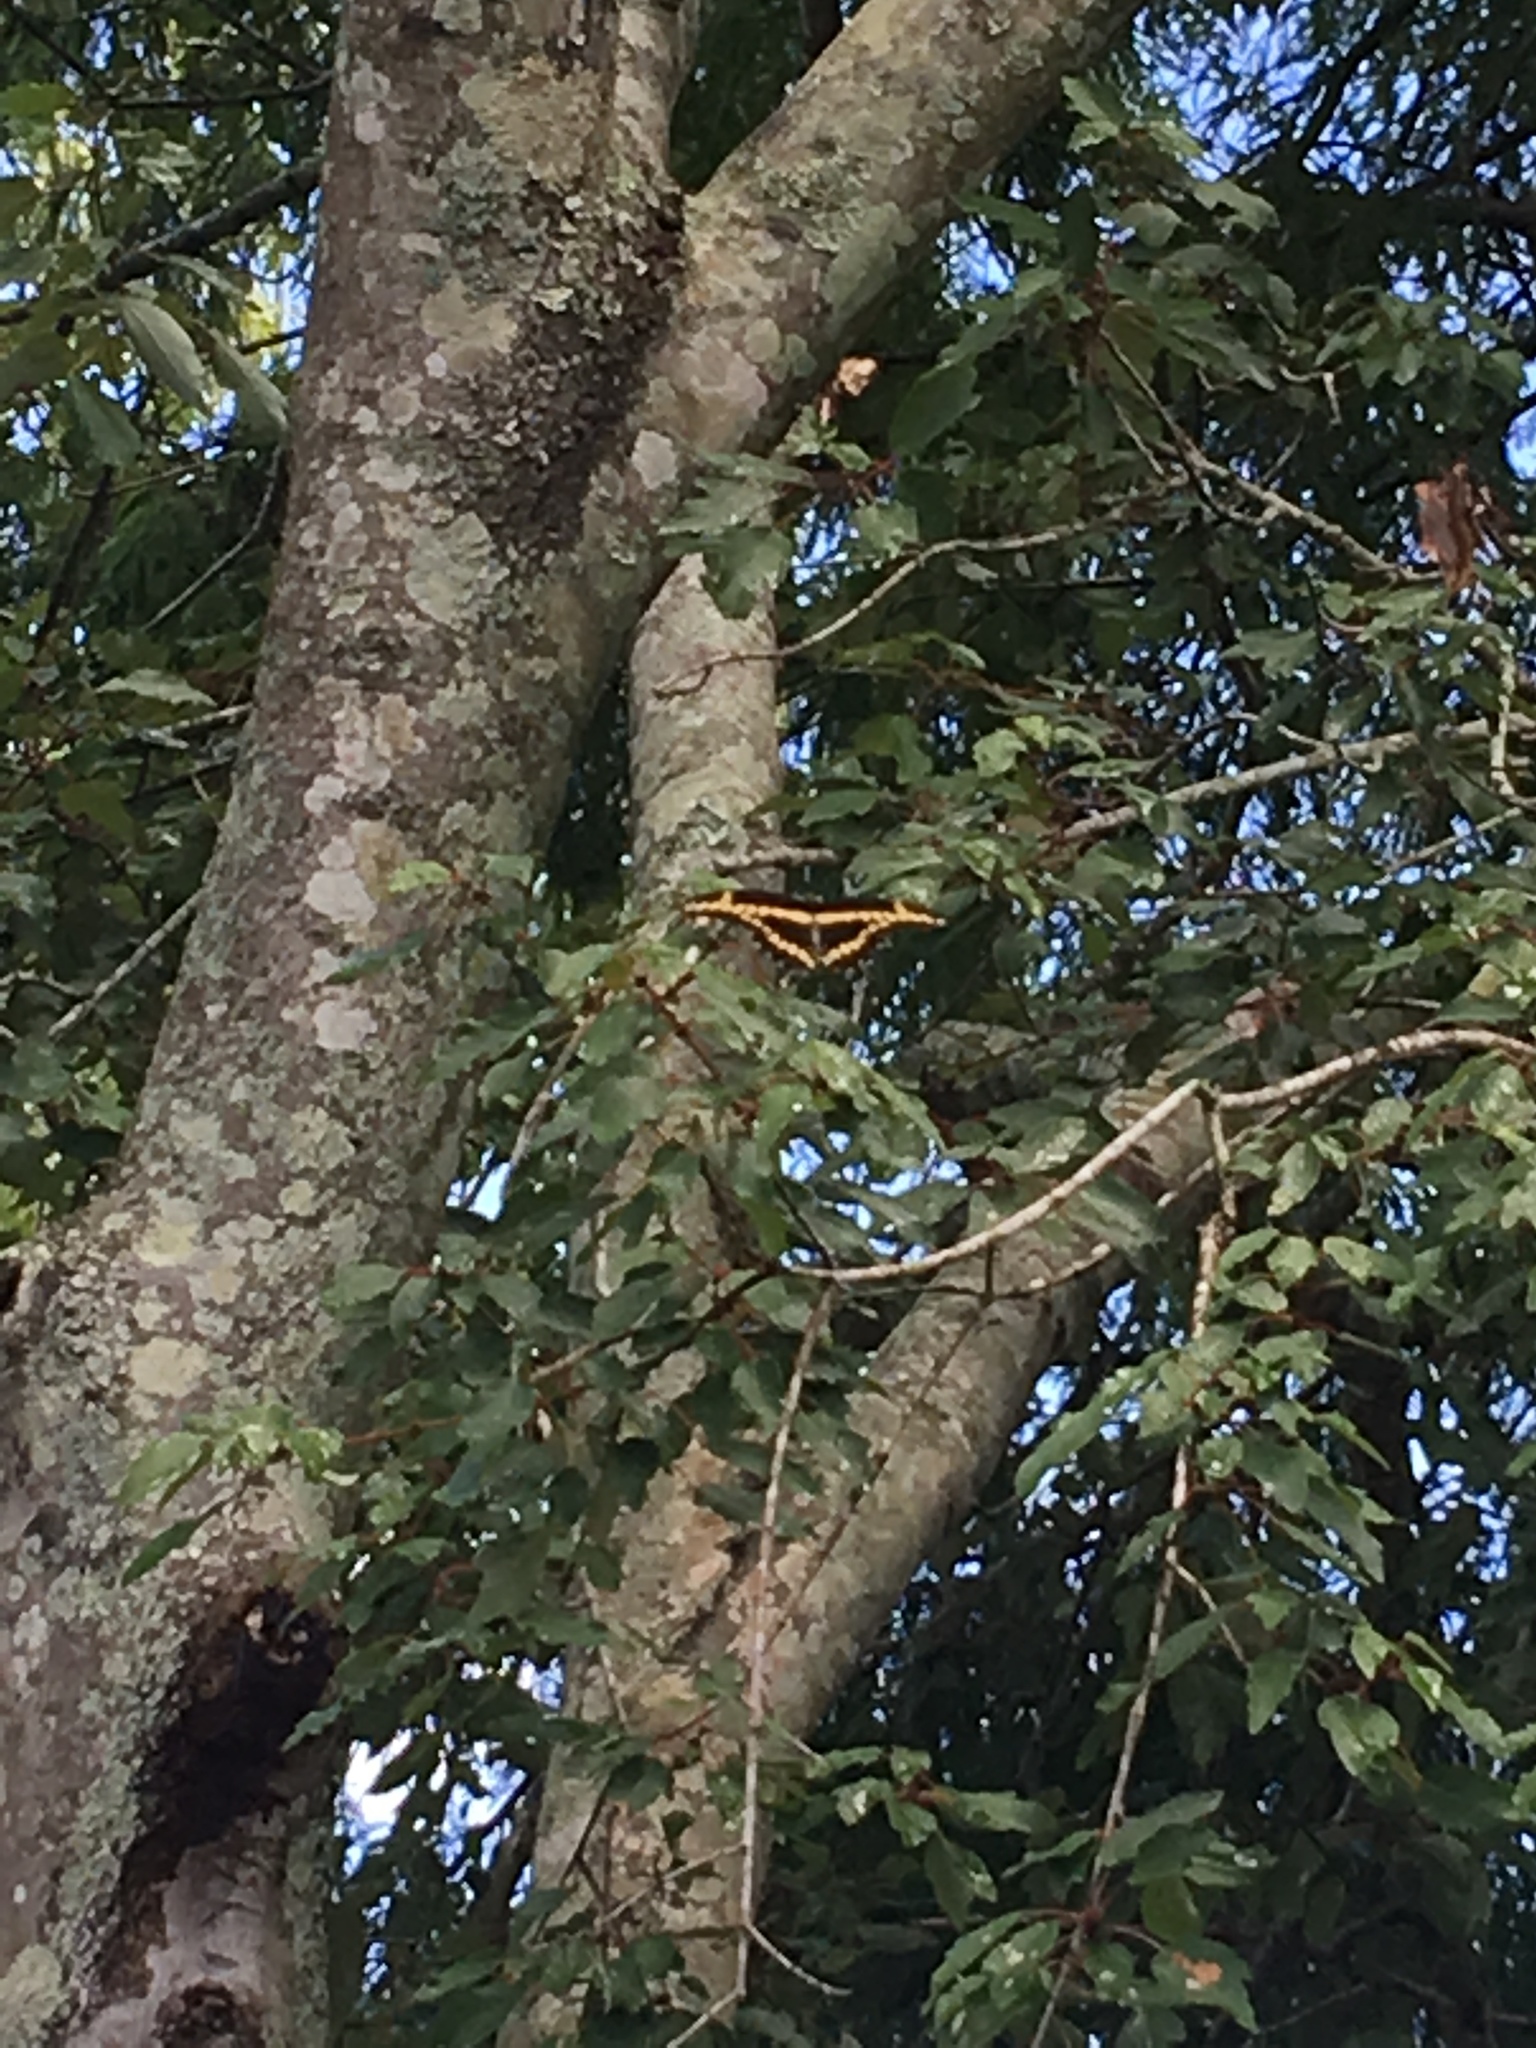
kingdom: Animalia
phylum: Arthropoda
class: Insecta
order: Lepidoptera
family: Papilionidae
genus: Papilio
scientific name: Papilio cresphontes
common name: Giant swallowtail
